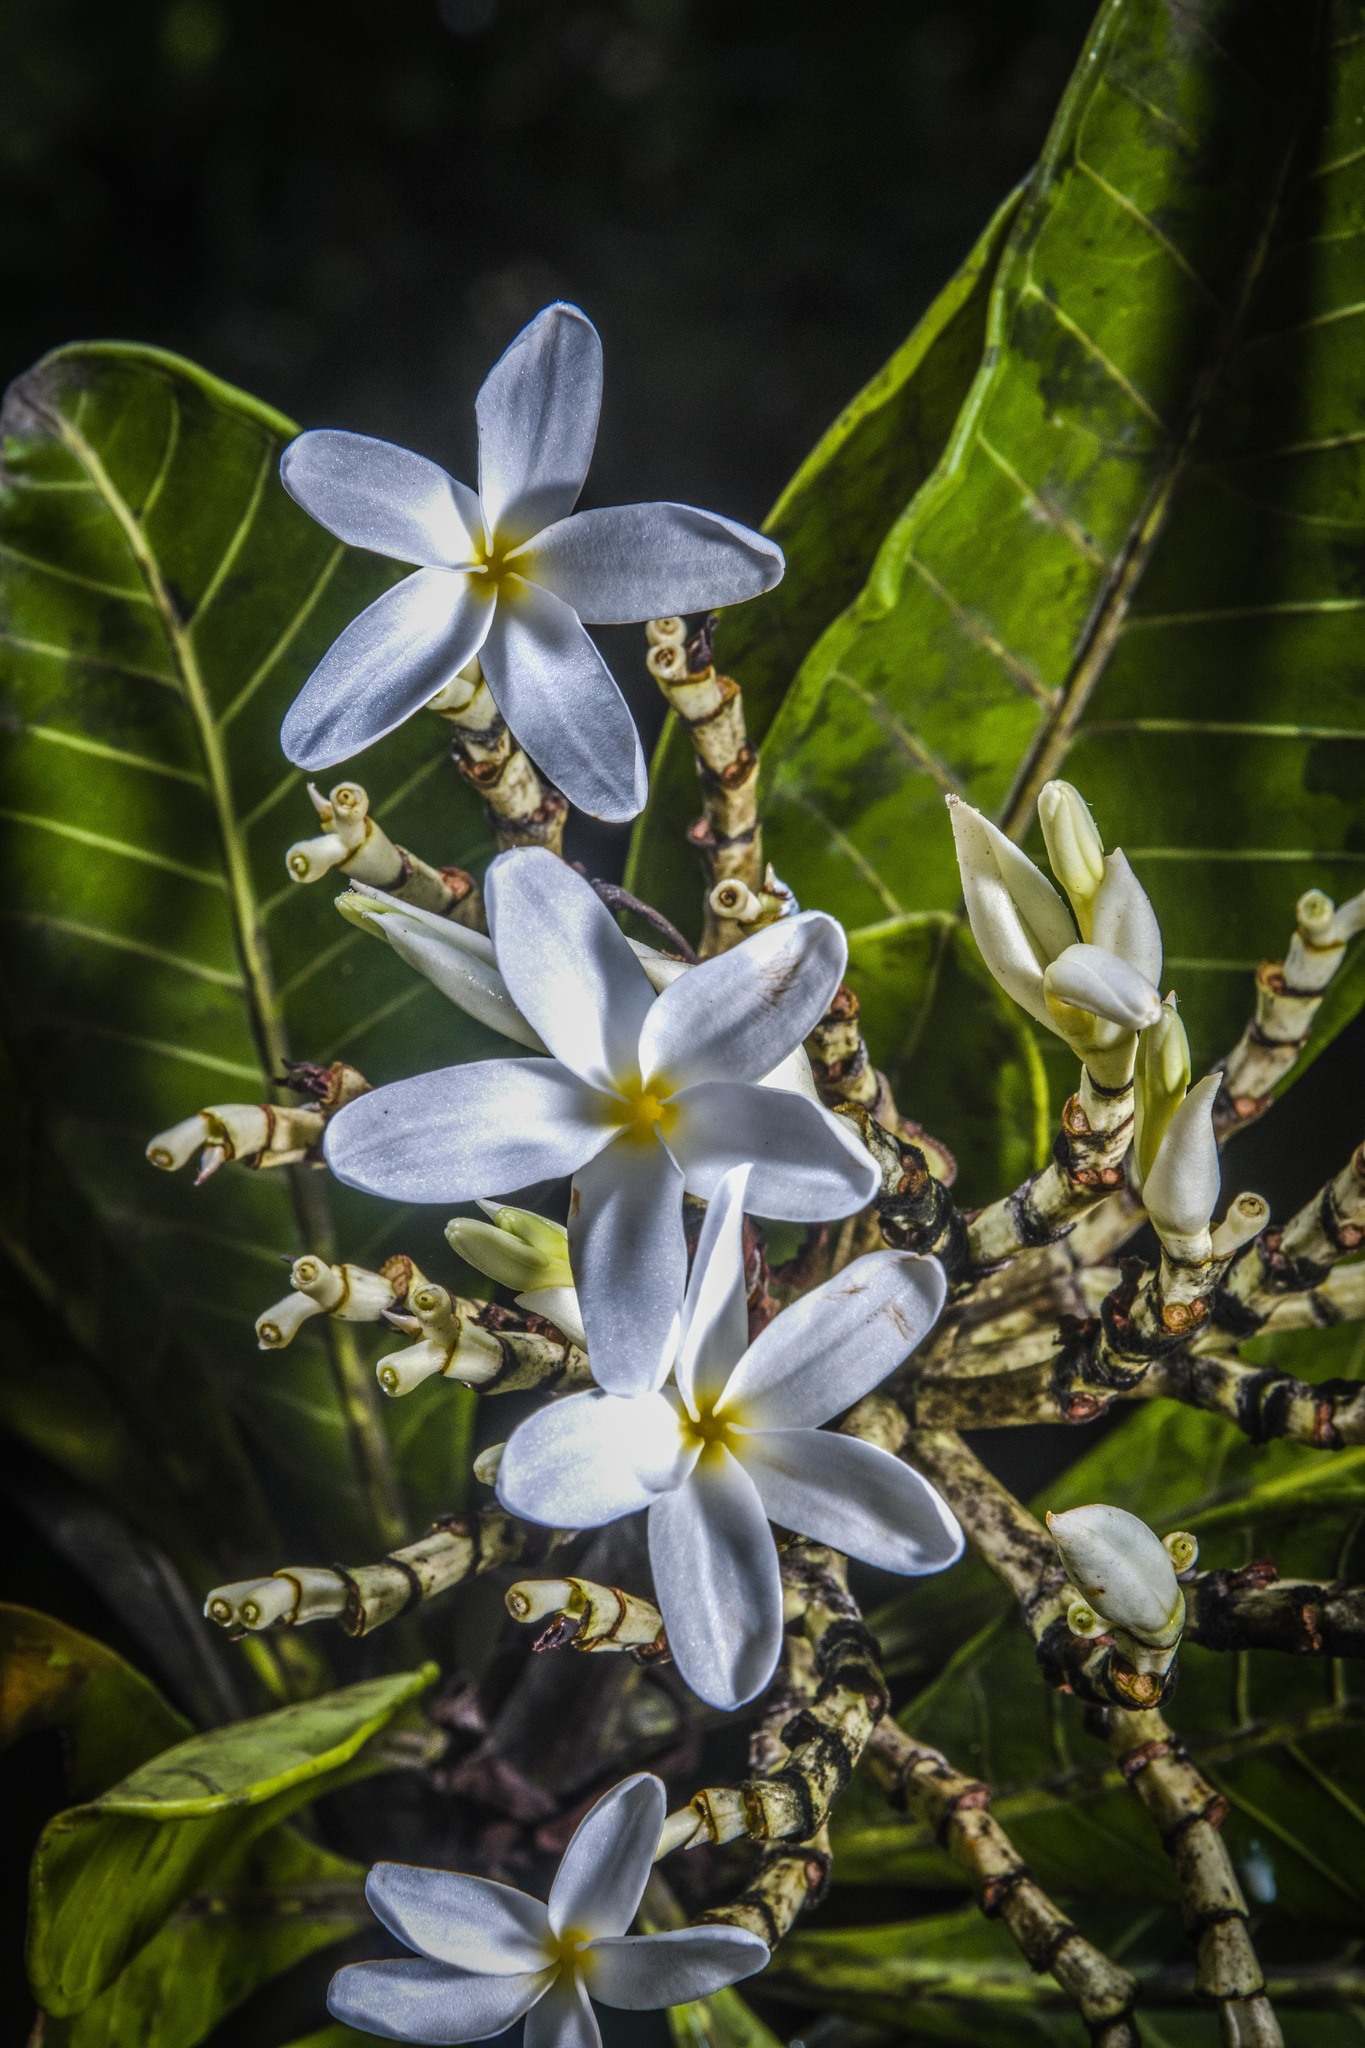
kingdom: Plantae
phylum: Tracheophyta
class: Magnoliopsida
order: Gentianales
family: Apocynaceae
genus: Himatanthus
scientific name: Himatanthus articulatus
